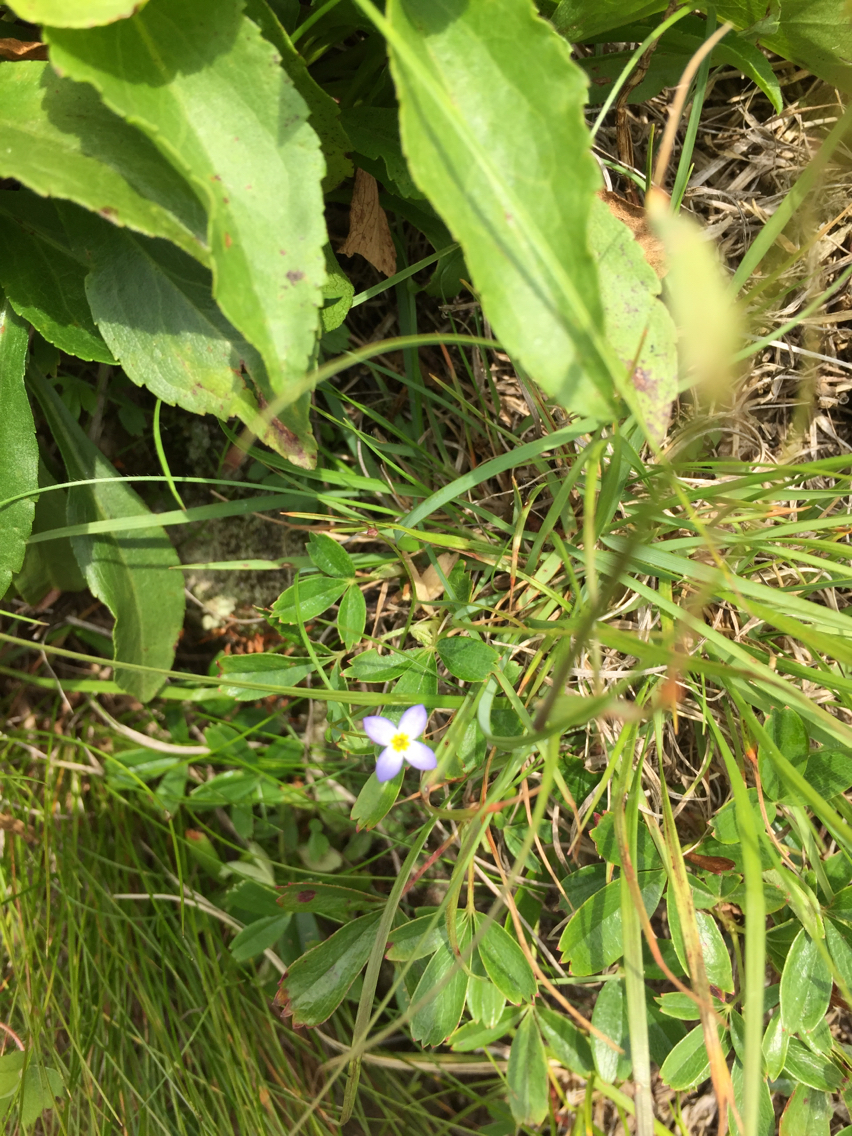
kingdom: Plantae
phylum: Tracheophyta
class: Magnoliopsida
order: Gentianales
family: Rubiaceae
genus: Houstonia
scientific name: Houstonia caerulea
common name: Bluets
